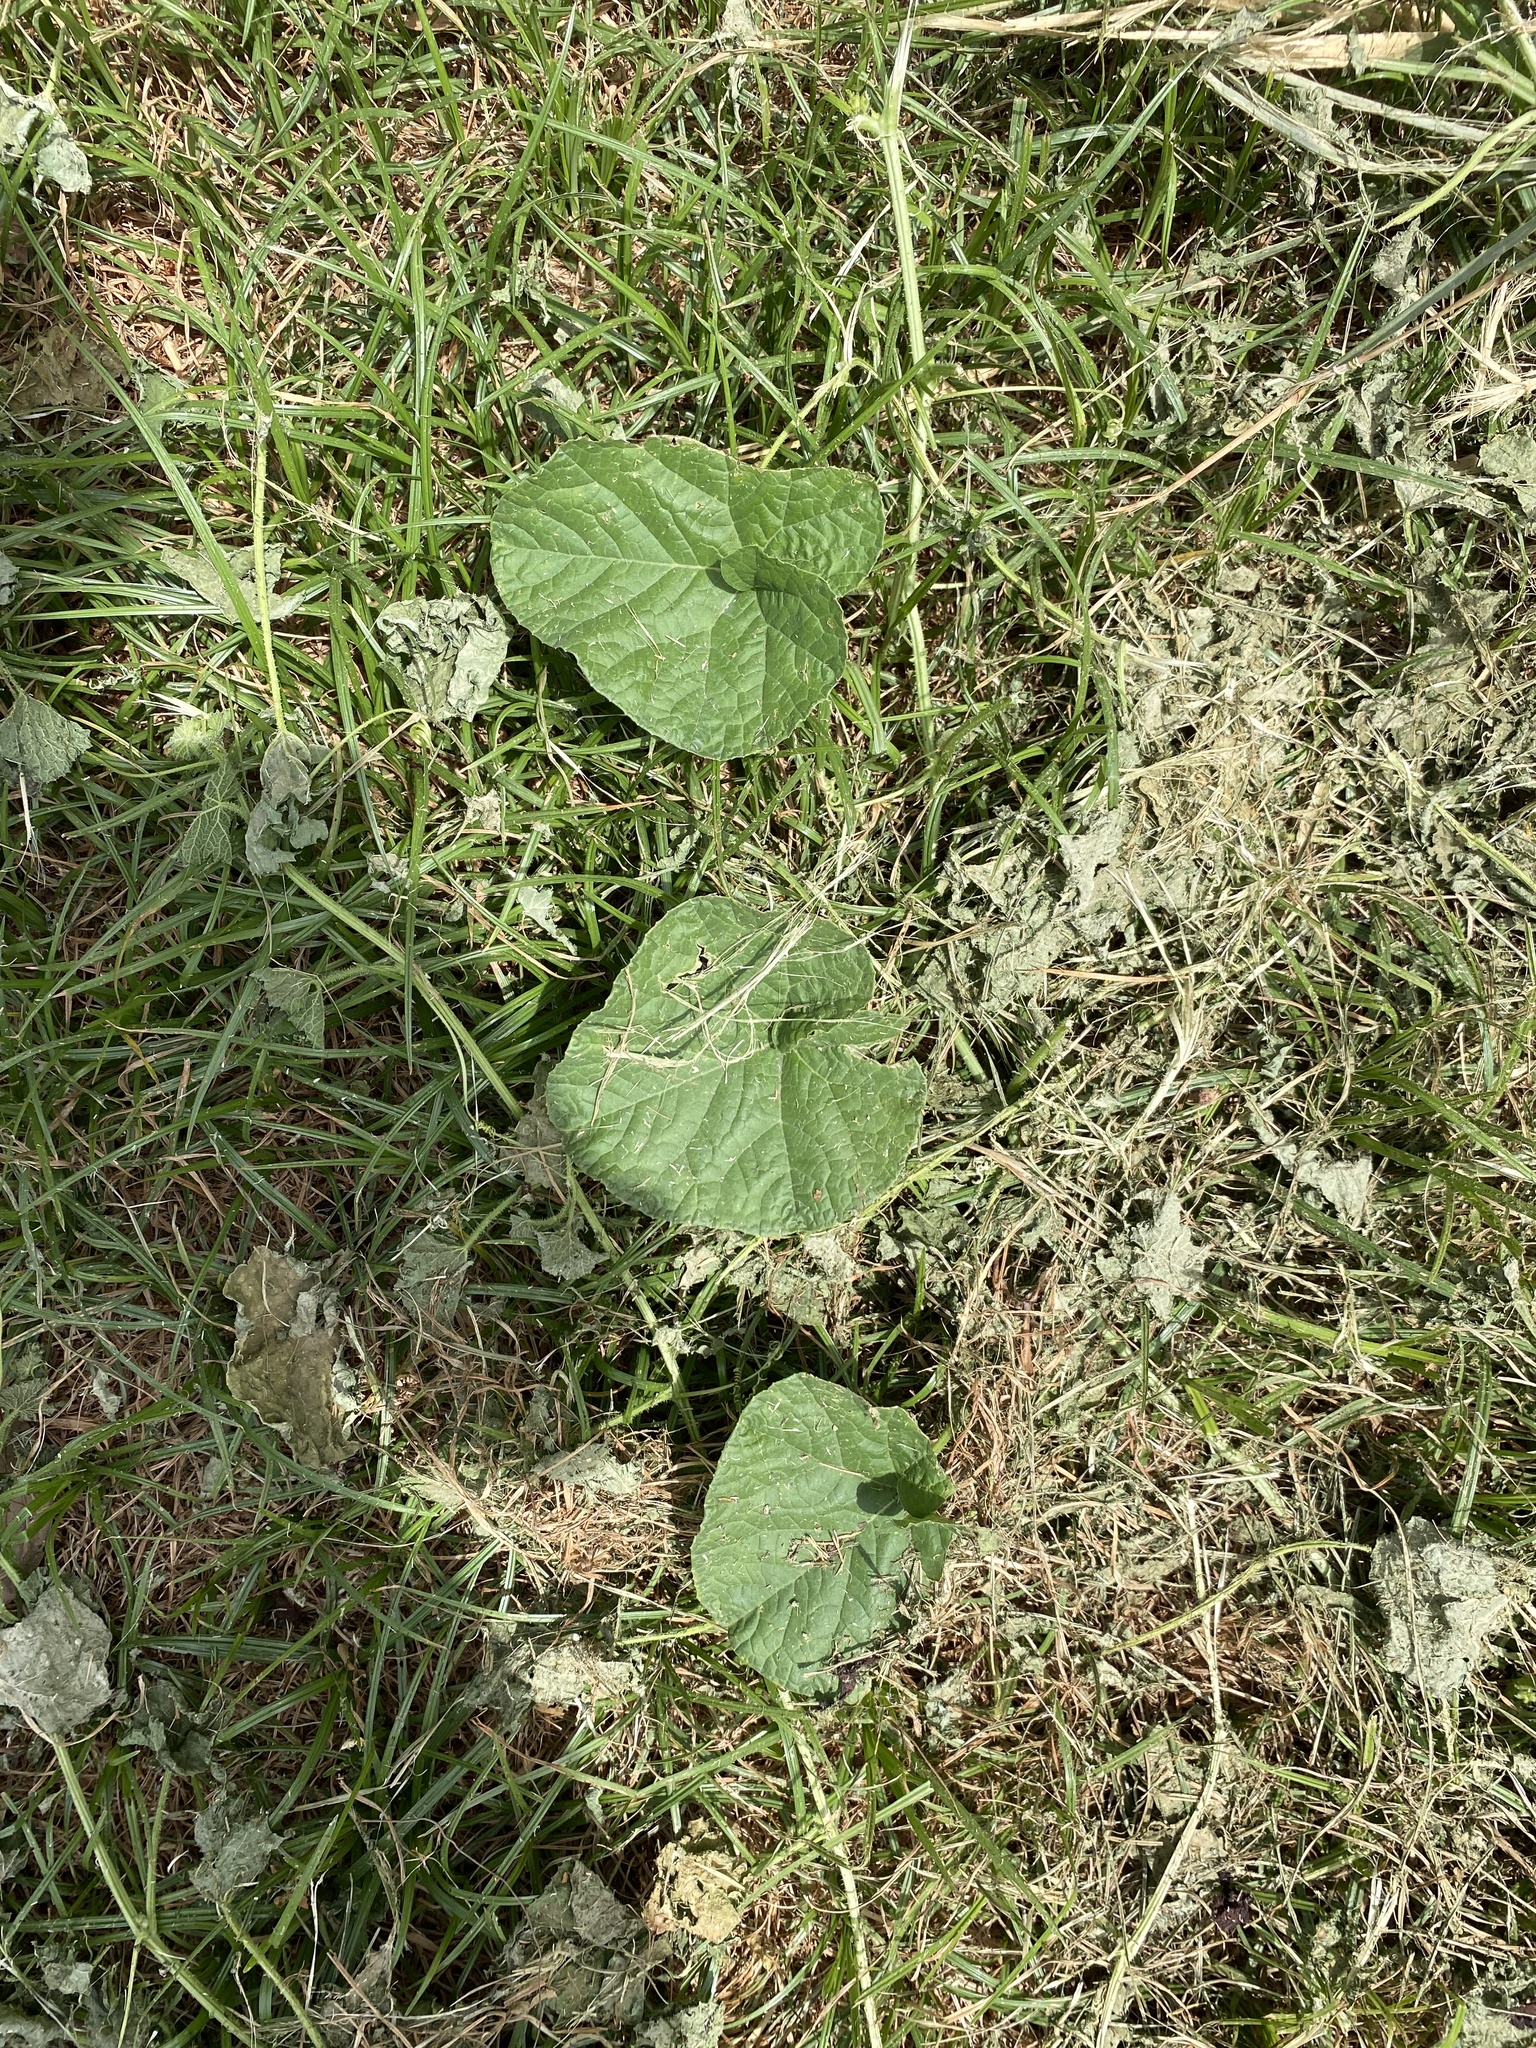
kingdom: Plantae
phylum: Tracheophyta
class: Magnoliopsida
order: Cucurbitales
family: Cucurbitaceae
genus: Cucumis
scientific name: Cucumis melo
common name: Melon
